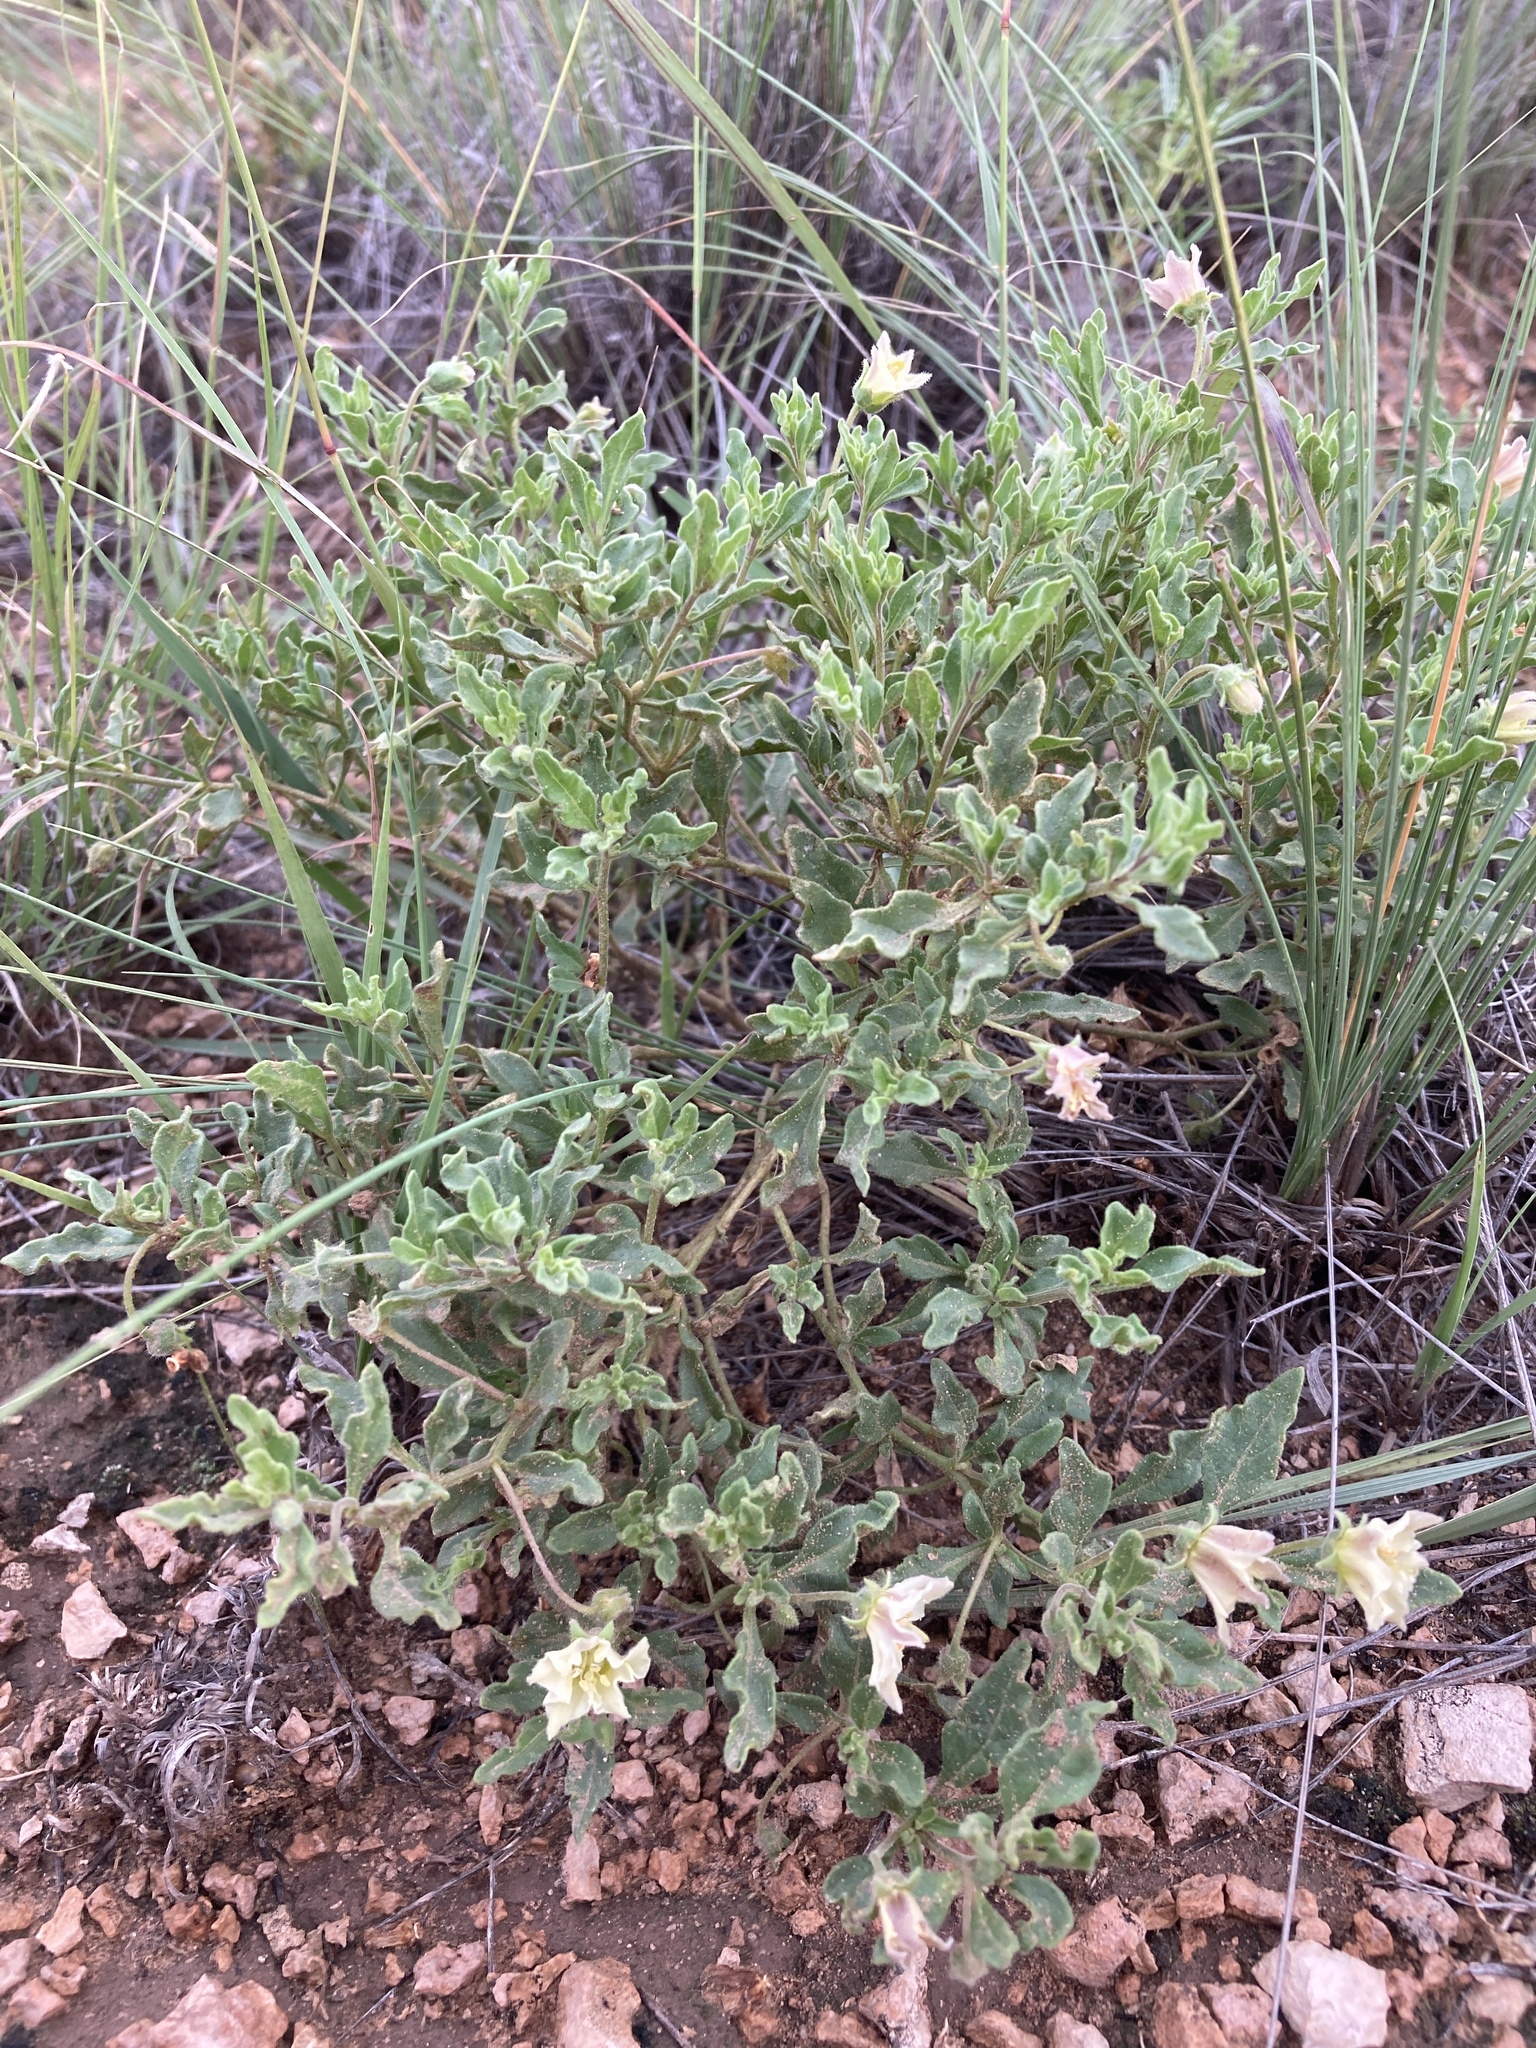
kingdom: Plantae
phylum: Tracheophyta
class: Magnoliopsida
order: Solanales
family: Solanaceae
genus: Chamaesaracha
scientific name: Chamaesaracha sordida
